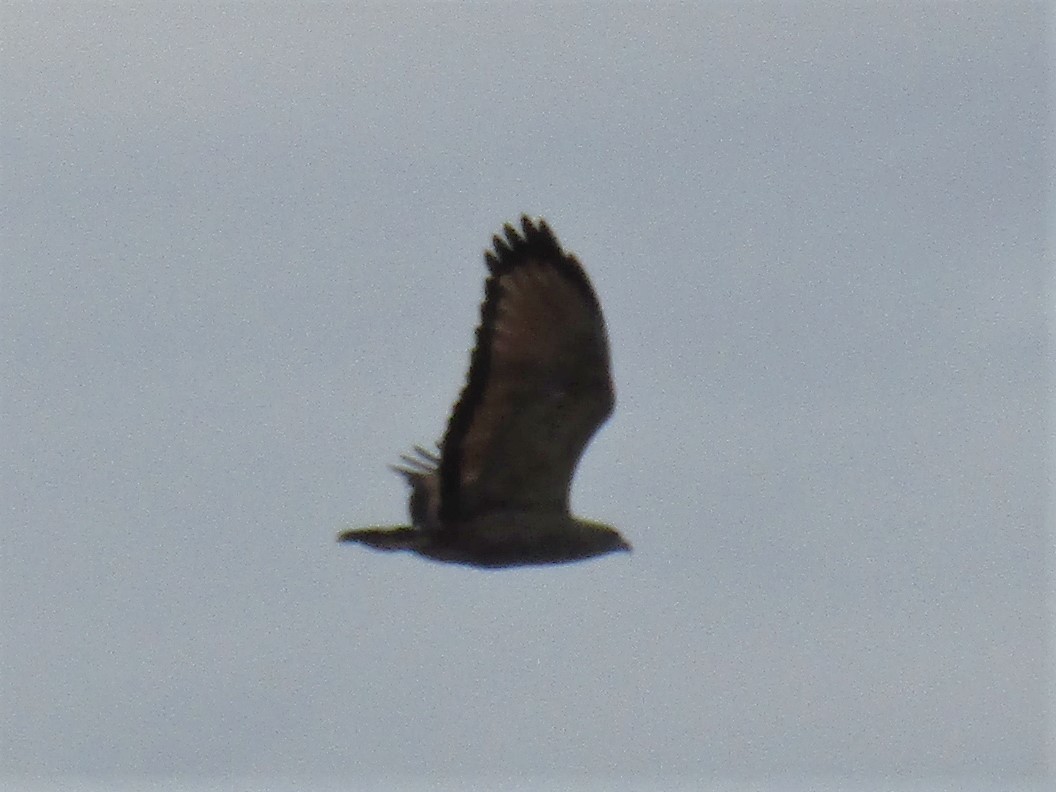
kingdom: Animalia
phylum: Chordata
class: Aves
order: Accipitriformes
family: Accipitridae
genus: Buteogallus
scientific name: Buteogallus meridionalis
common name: Savanna hawk
